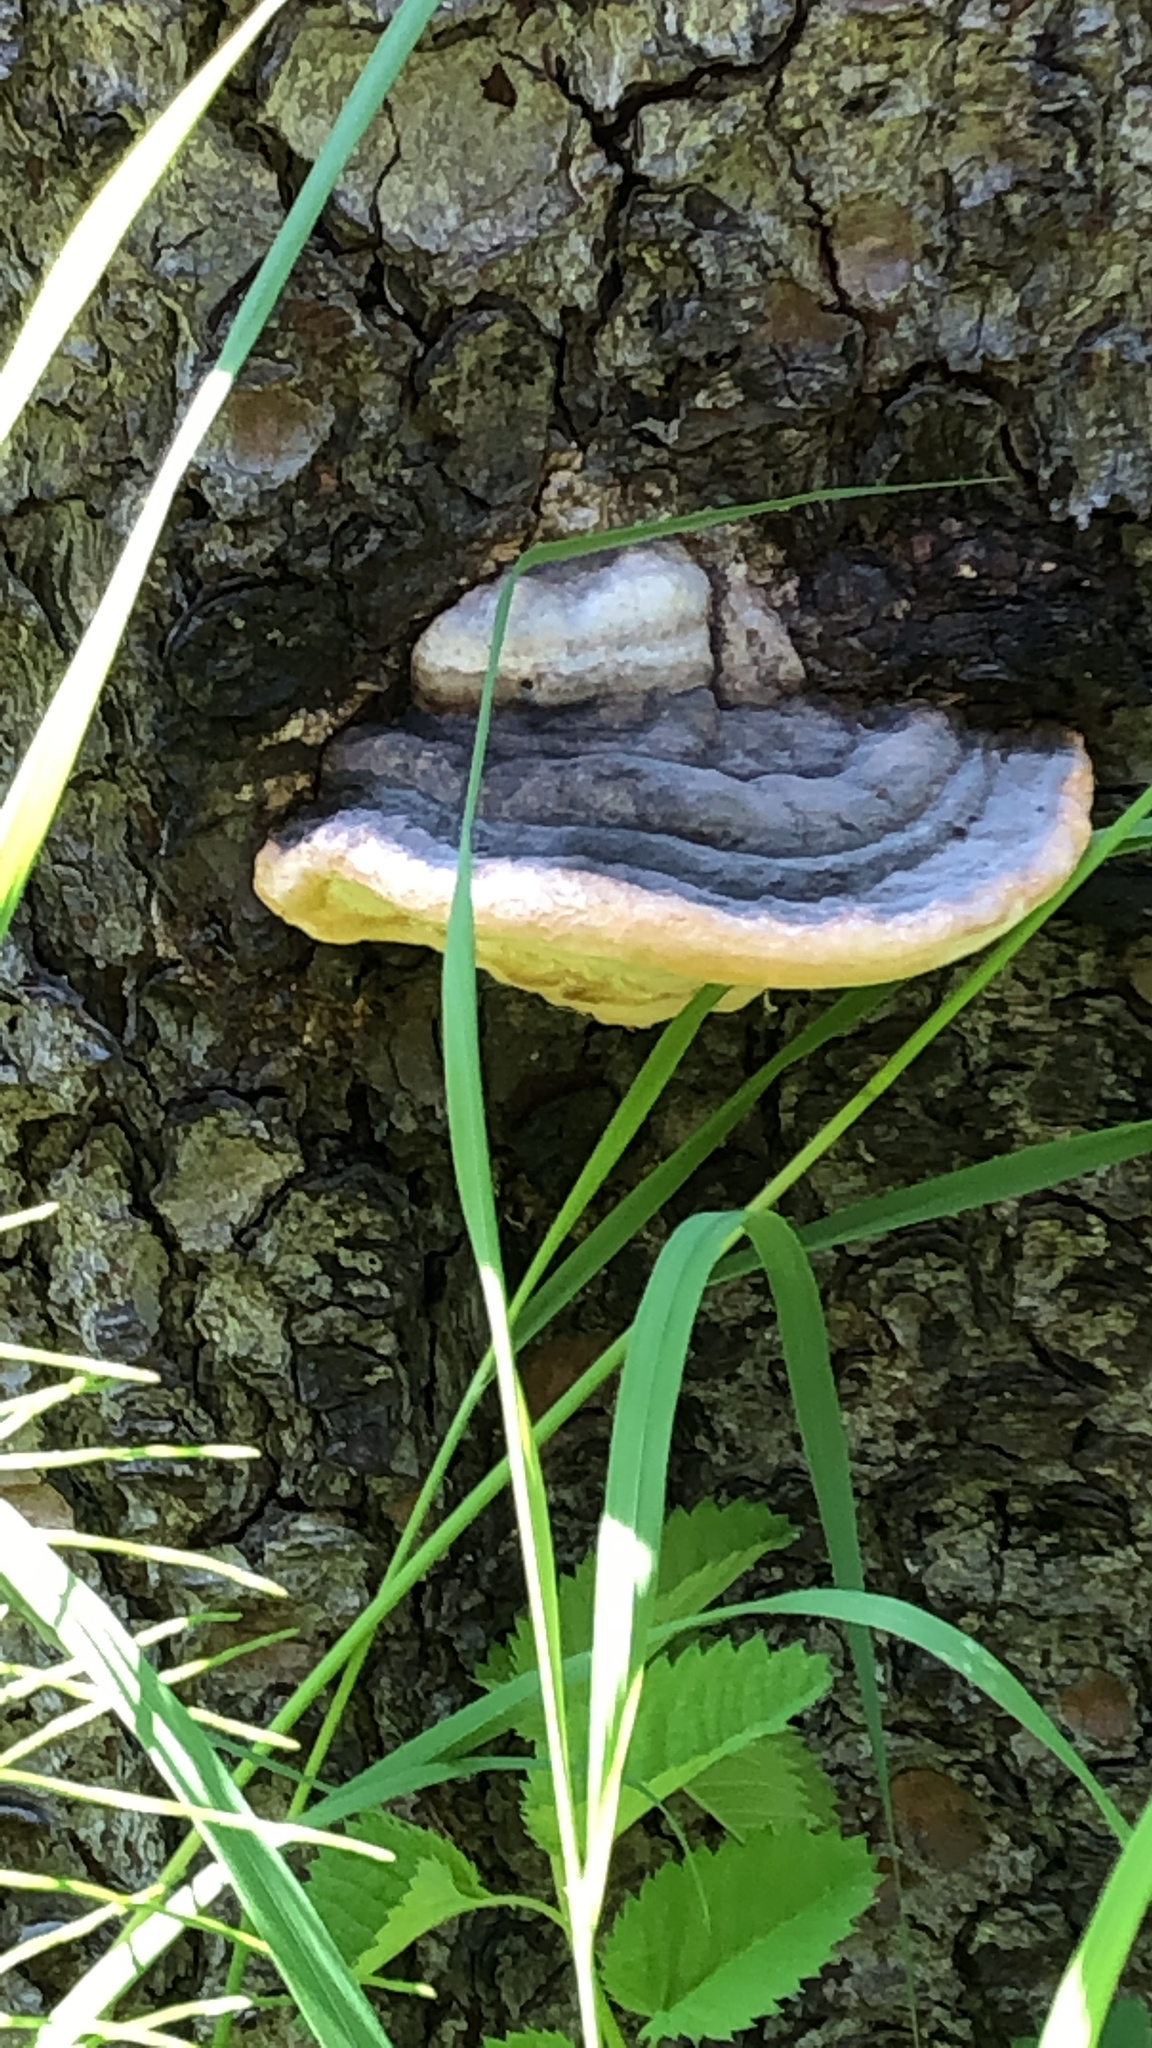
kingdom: Fungi
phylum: Basidiomycota
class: Agaricomycetes
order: Polyporales
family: Fomitopsidaceae
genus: Fomitopsis
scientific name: Fomitopsis ochracea
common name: American brown fomitopsis
